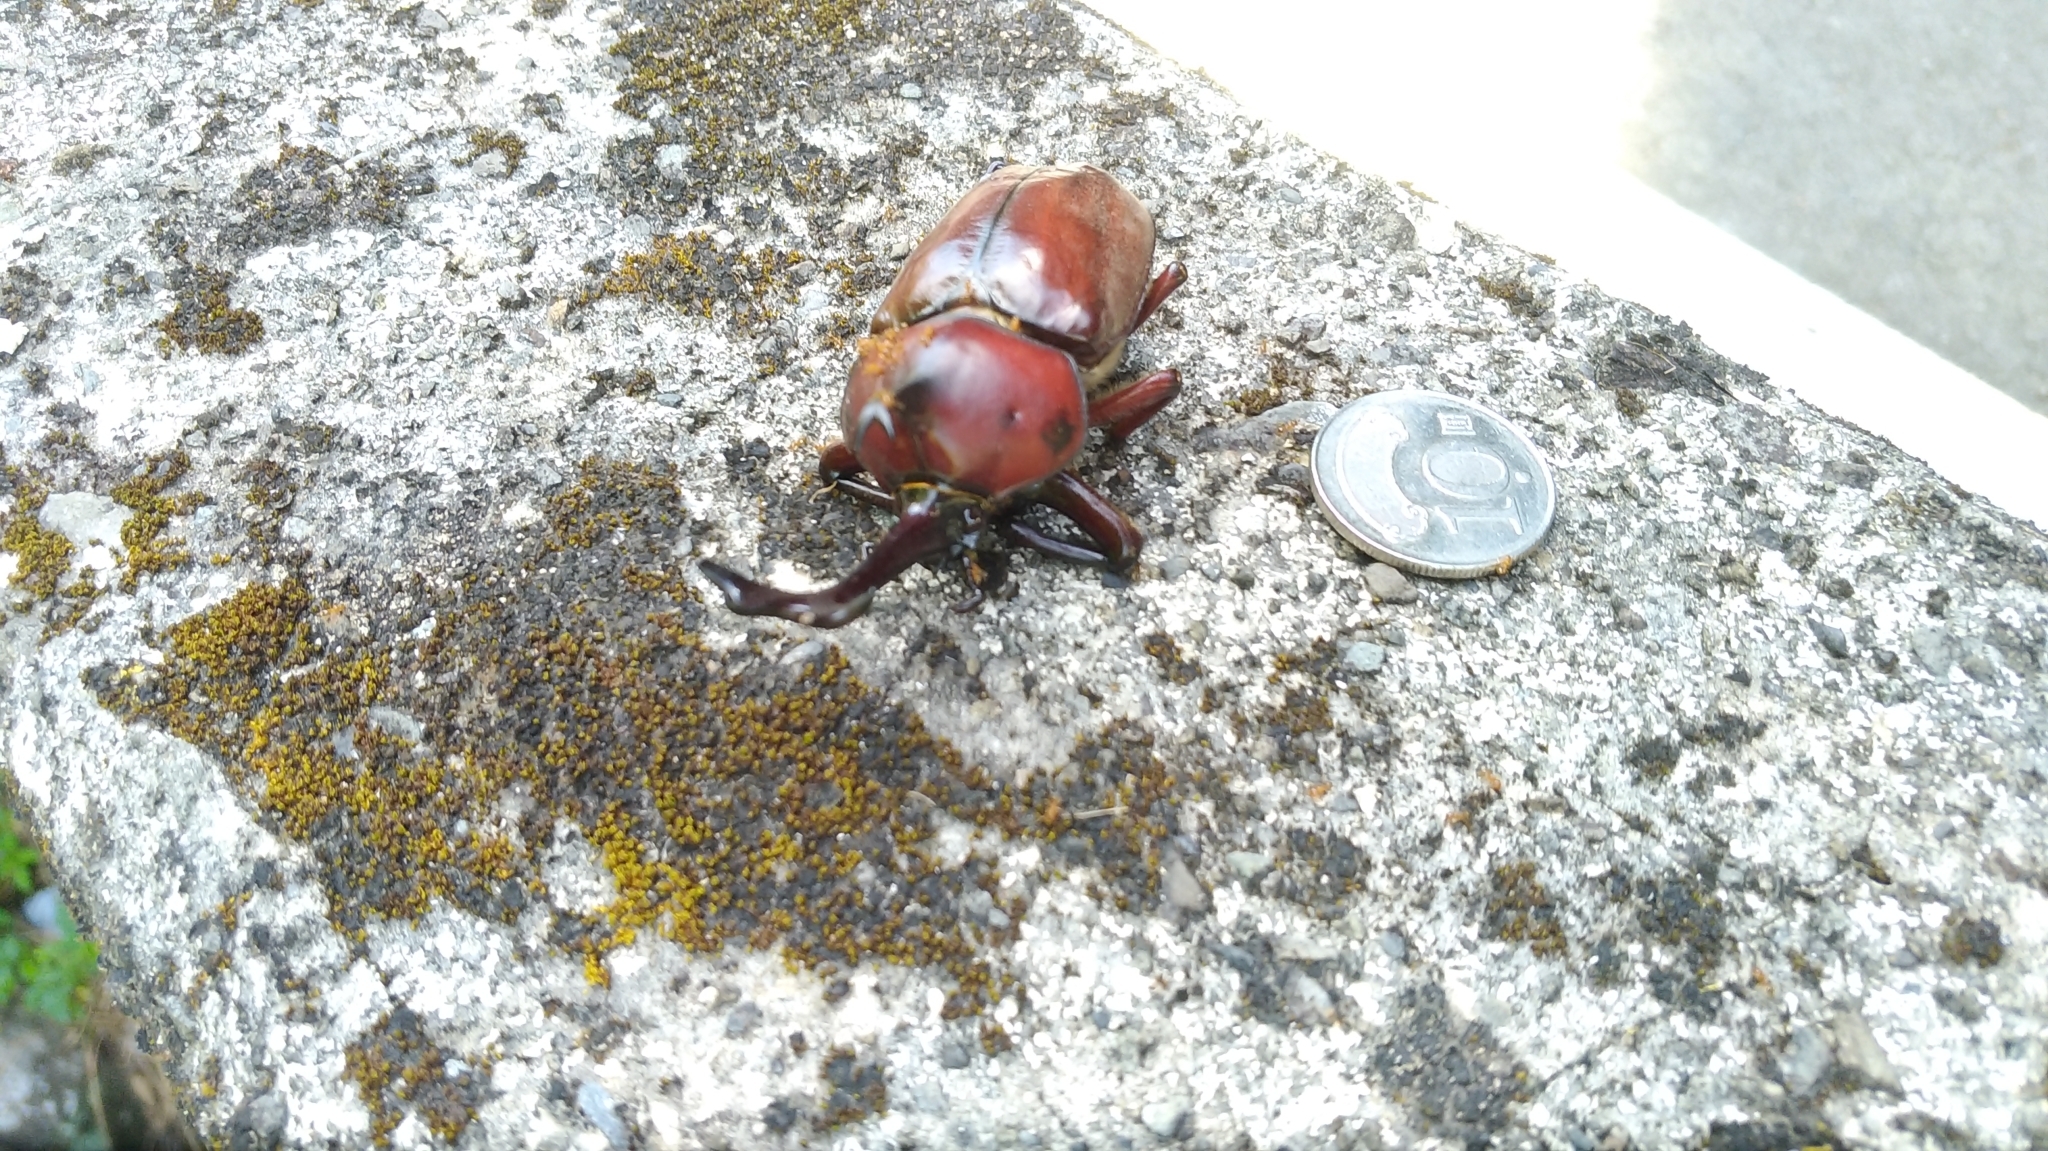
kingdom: Animalia
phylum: Arthropoda
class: Insecta
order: Coleoptera
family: Scarabaeidae
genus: Trypoxylus
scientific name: Trypoxylus dichotomus
